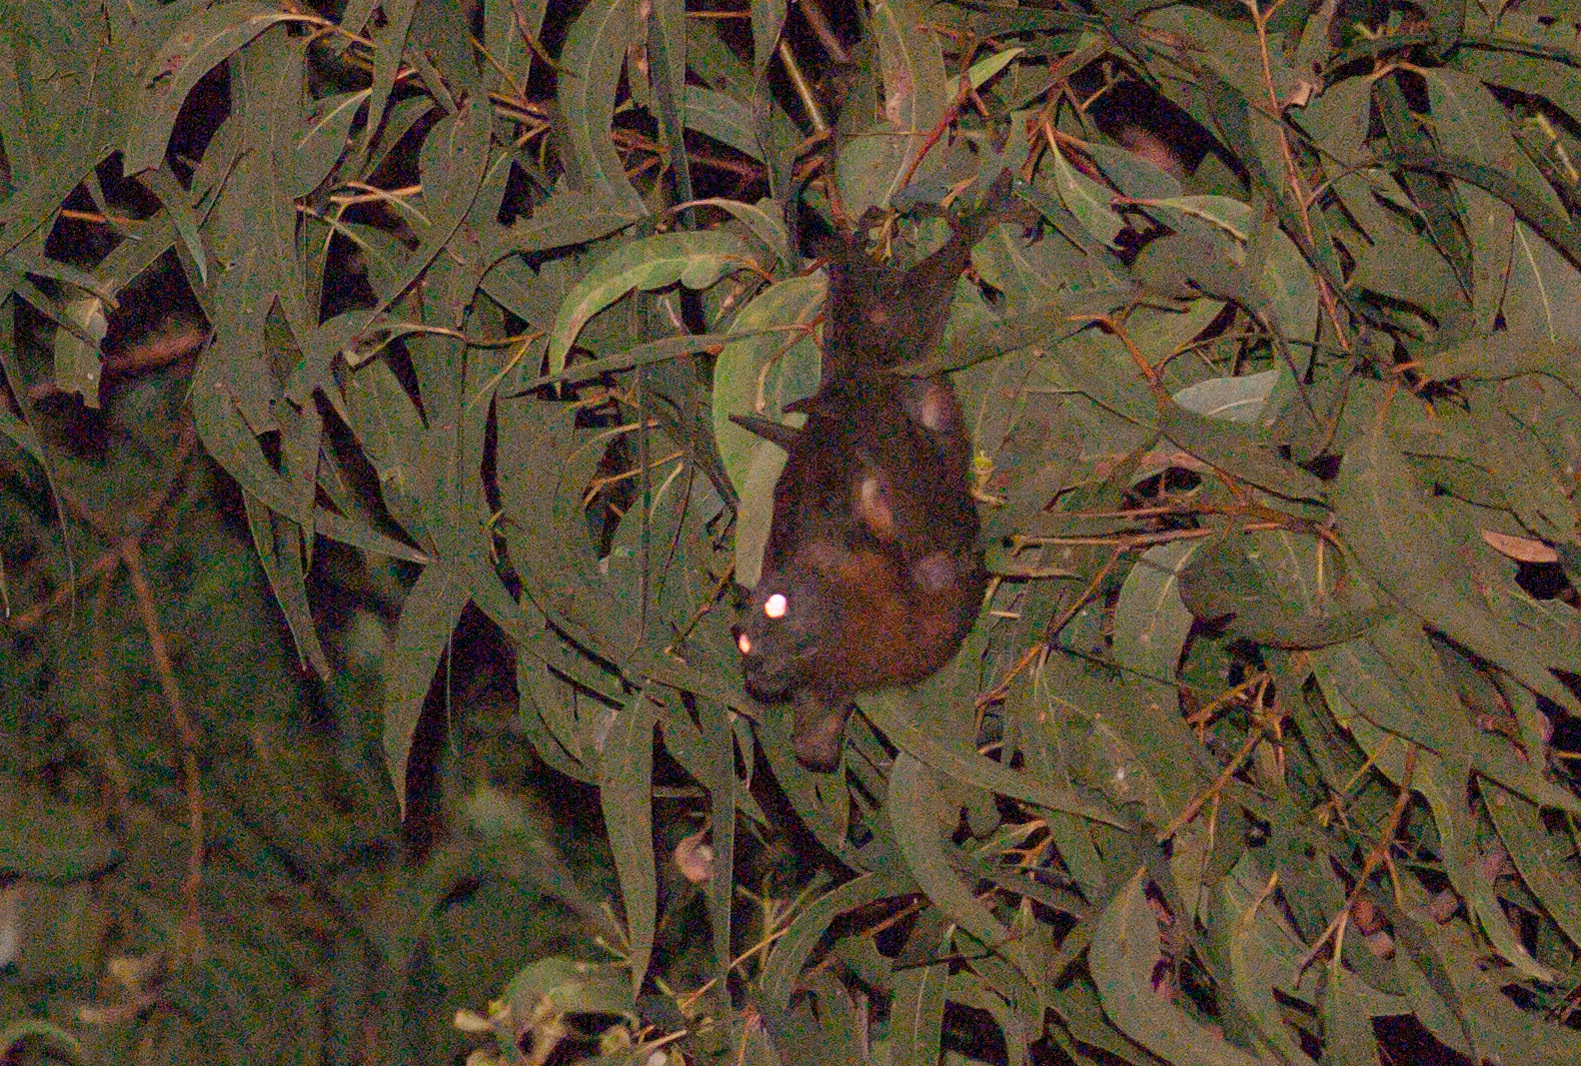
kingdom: Animalia
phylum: Chordata
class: Mammalia
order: Chiroptera
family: Pteropodidae
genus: Pteropus
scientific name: Pteropus scapulatus
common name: Little red flying fox
